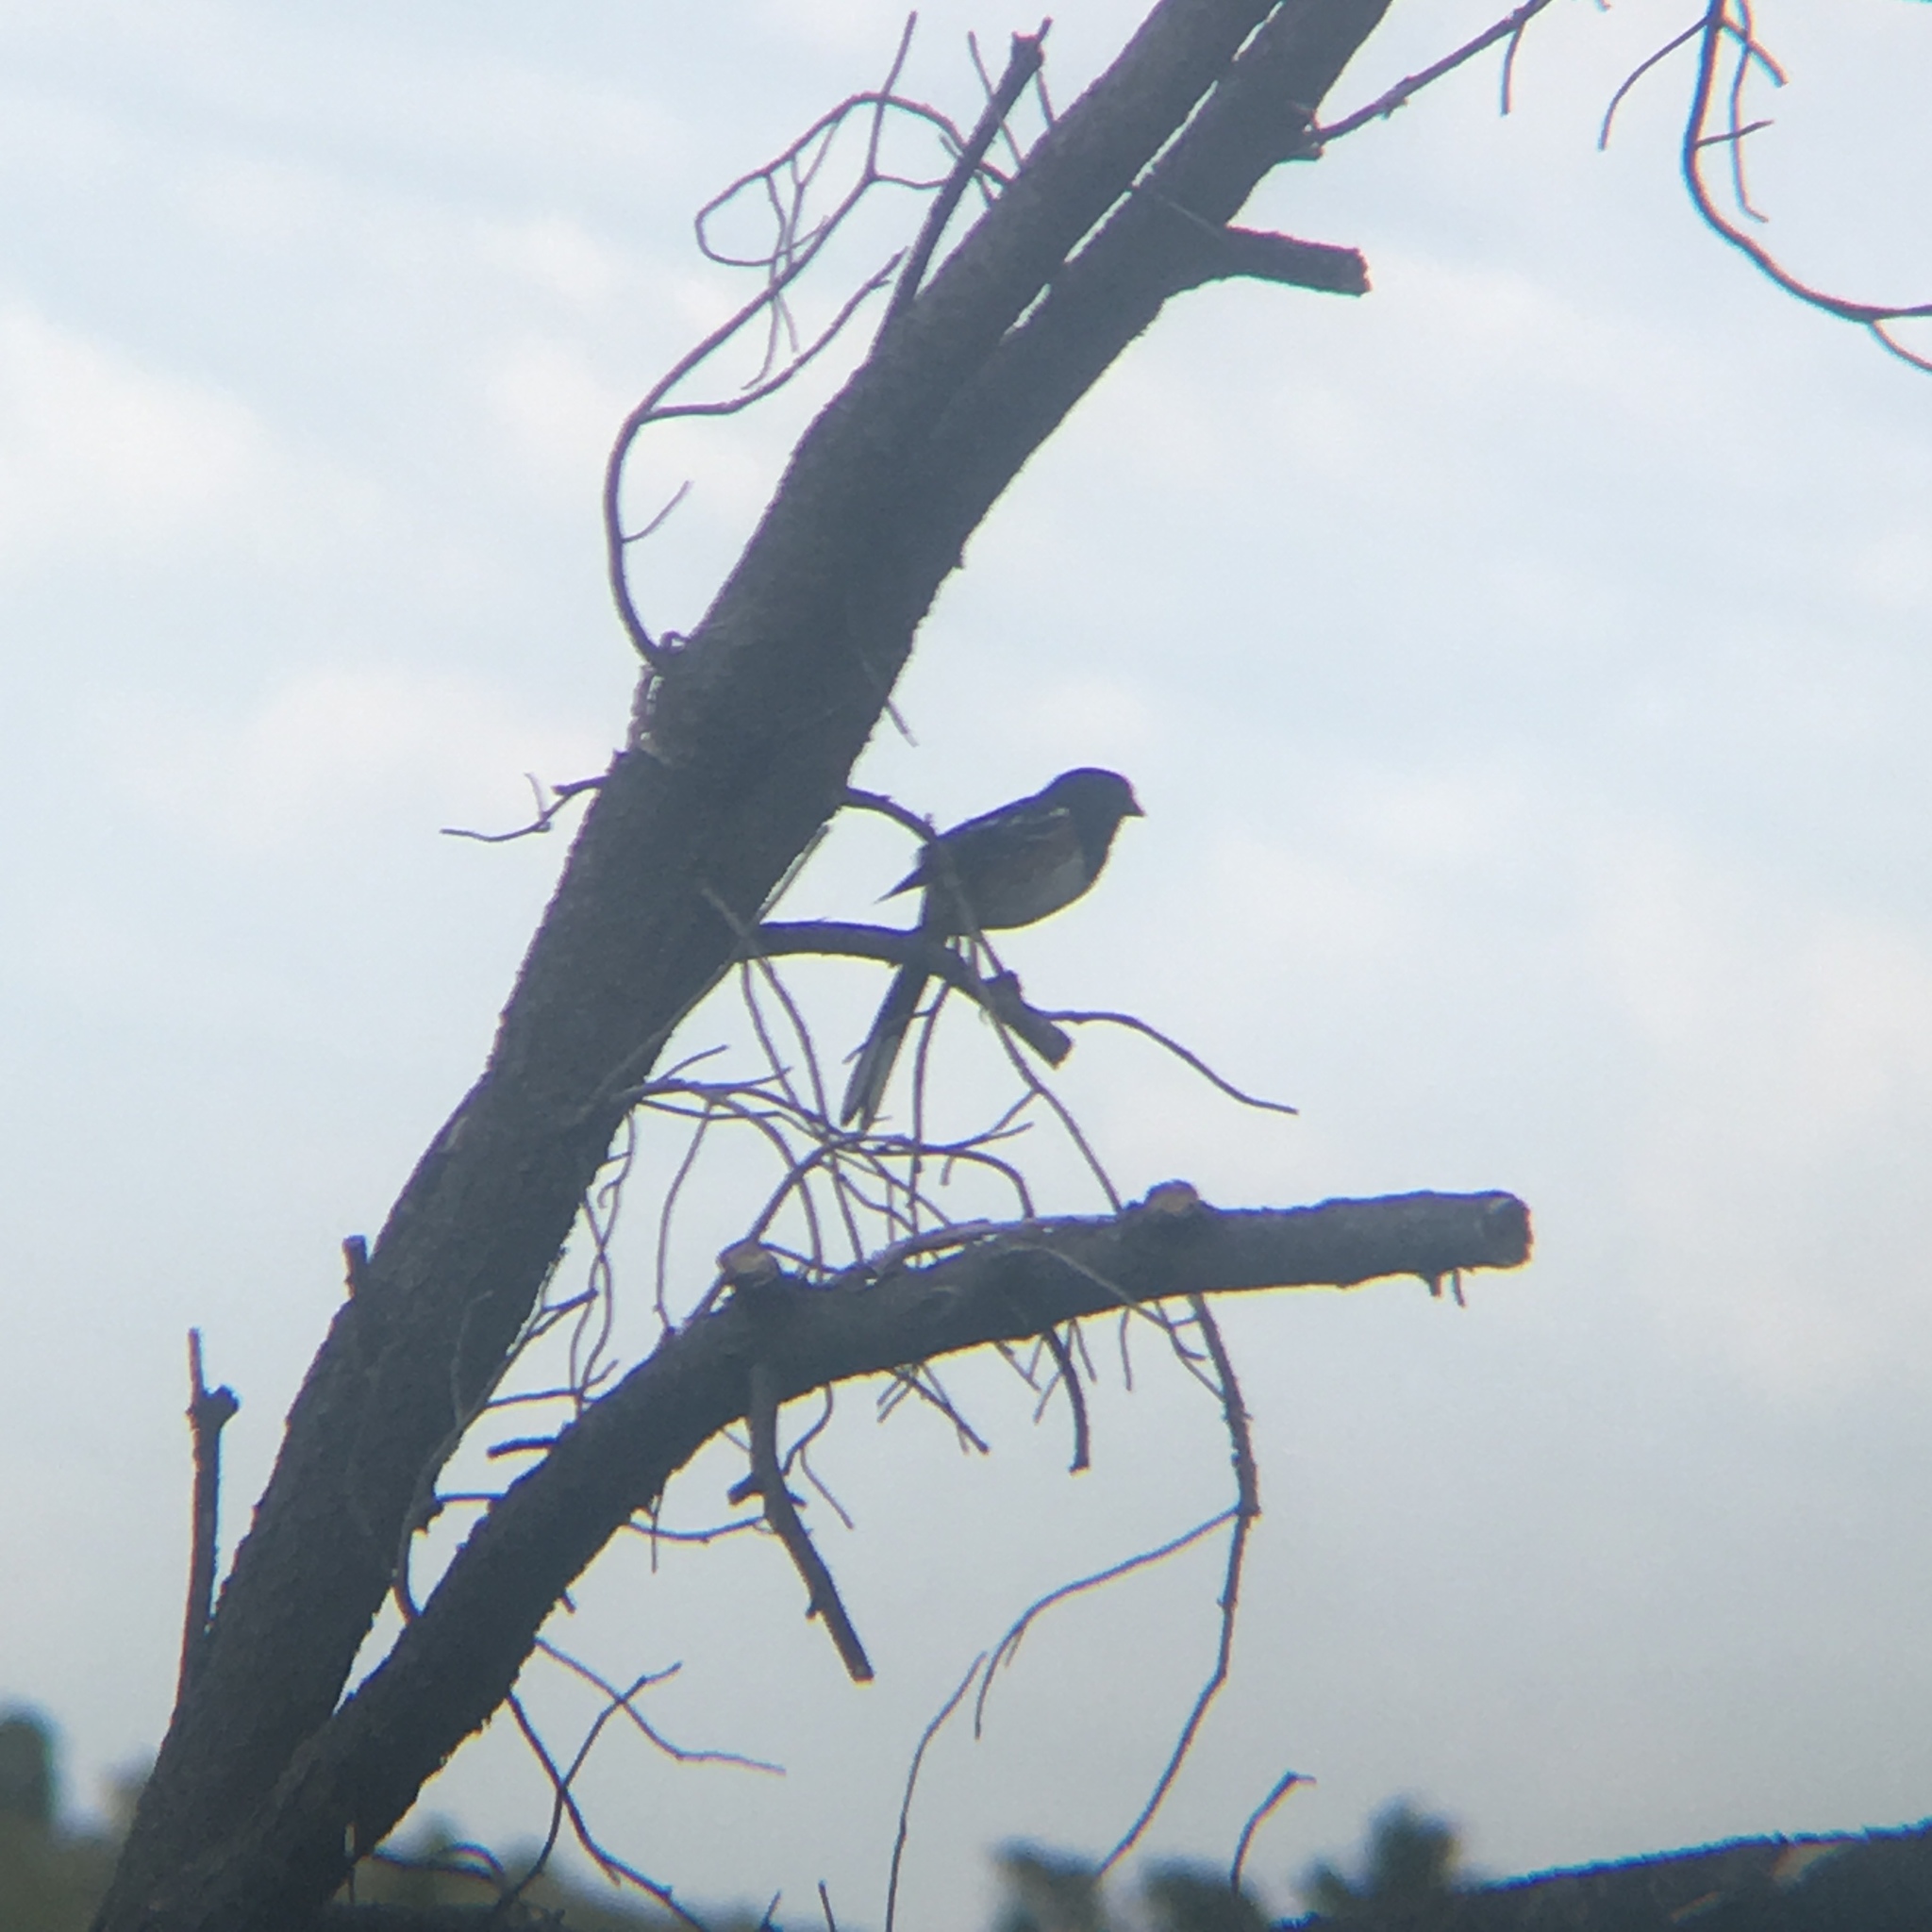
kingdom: Animalia
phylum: Chordata
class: Aves
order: Passeriformes
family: Passerellidae
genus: Pipilo
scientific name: Pipilo maculatus
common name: Spotted towhee
